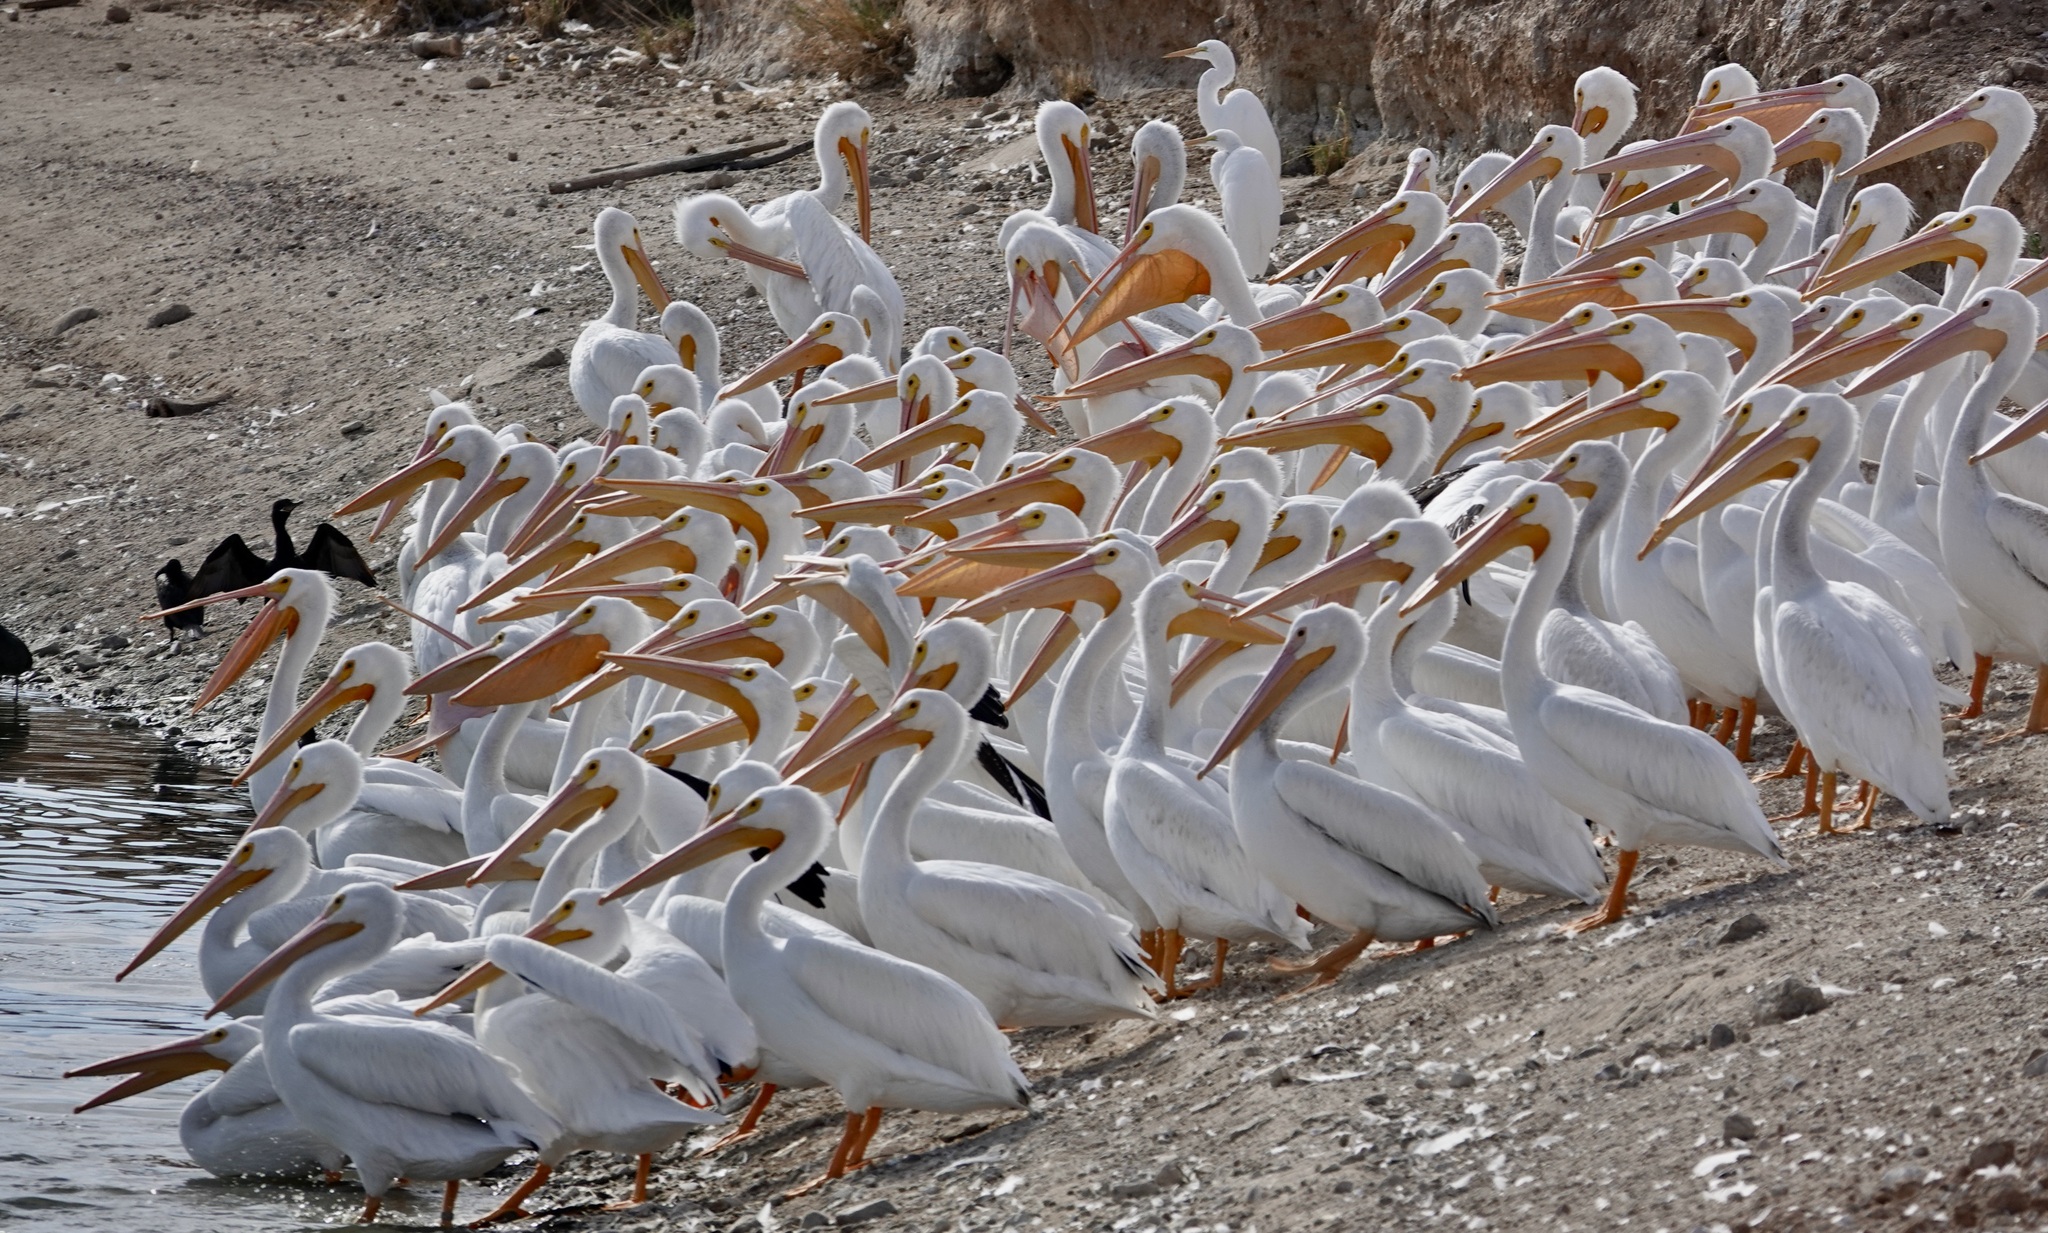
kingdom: Animalia
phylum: Chordata
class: Aves
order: Pelecaniformes
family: Pelecanidae
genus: Pelecanus
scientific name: Pelecanus erythrorhynchos
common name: American white pelican
